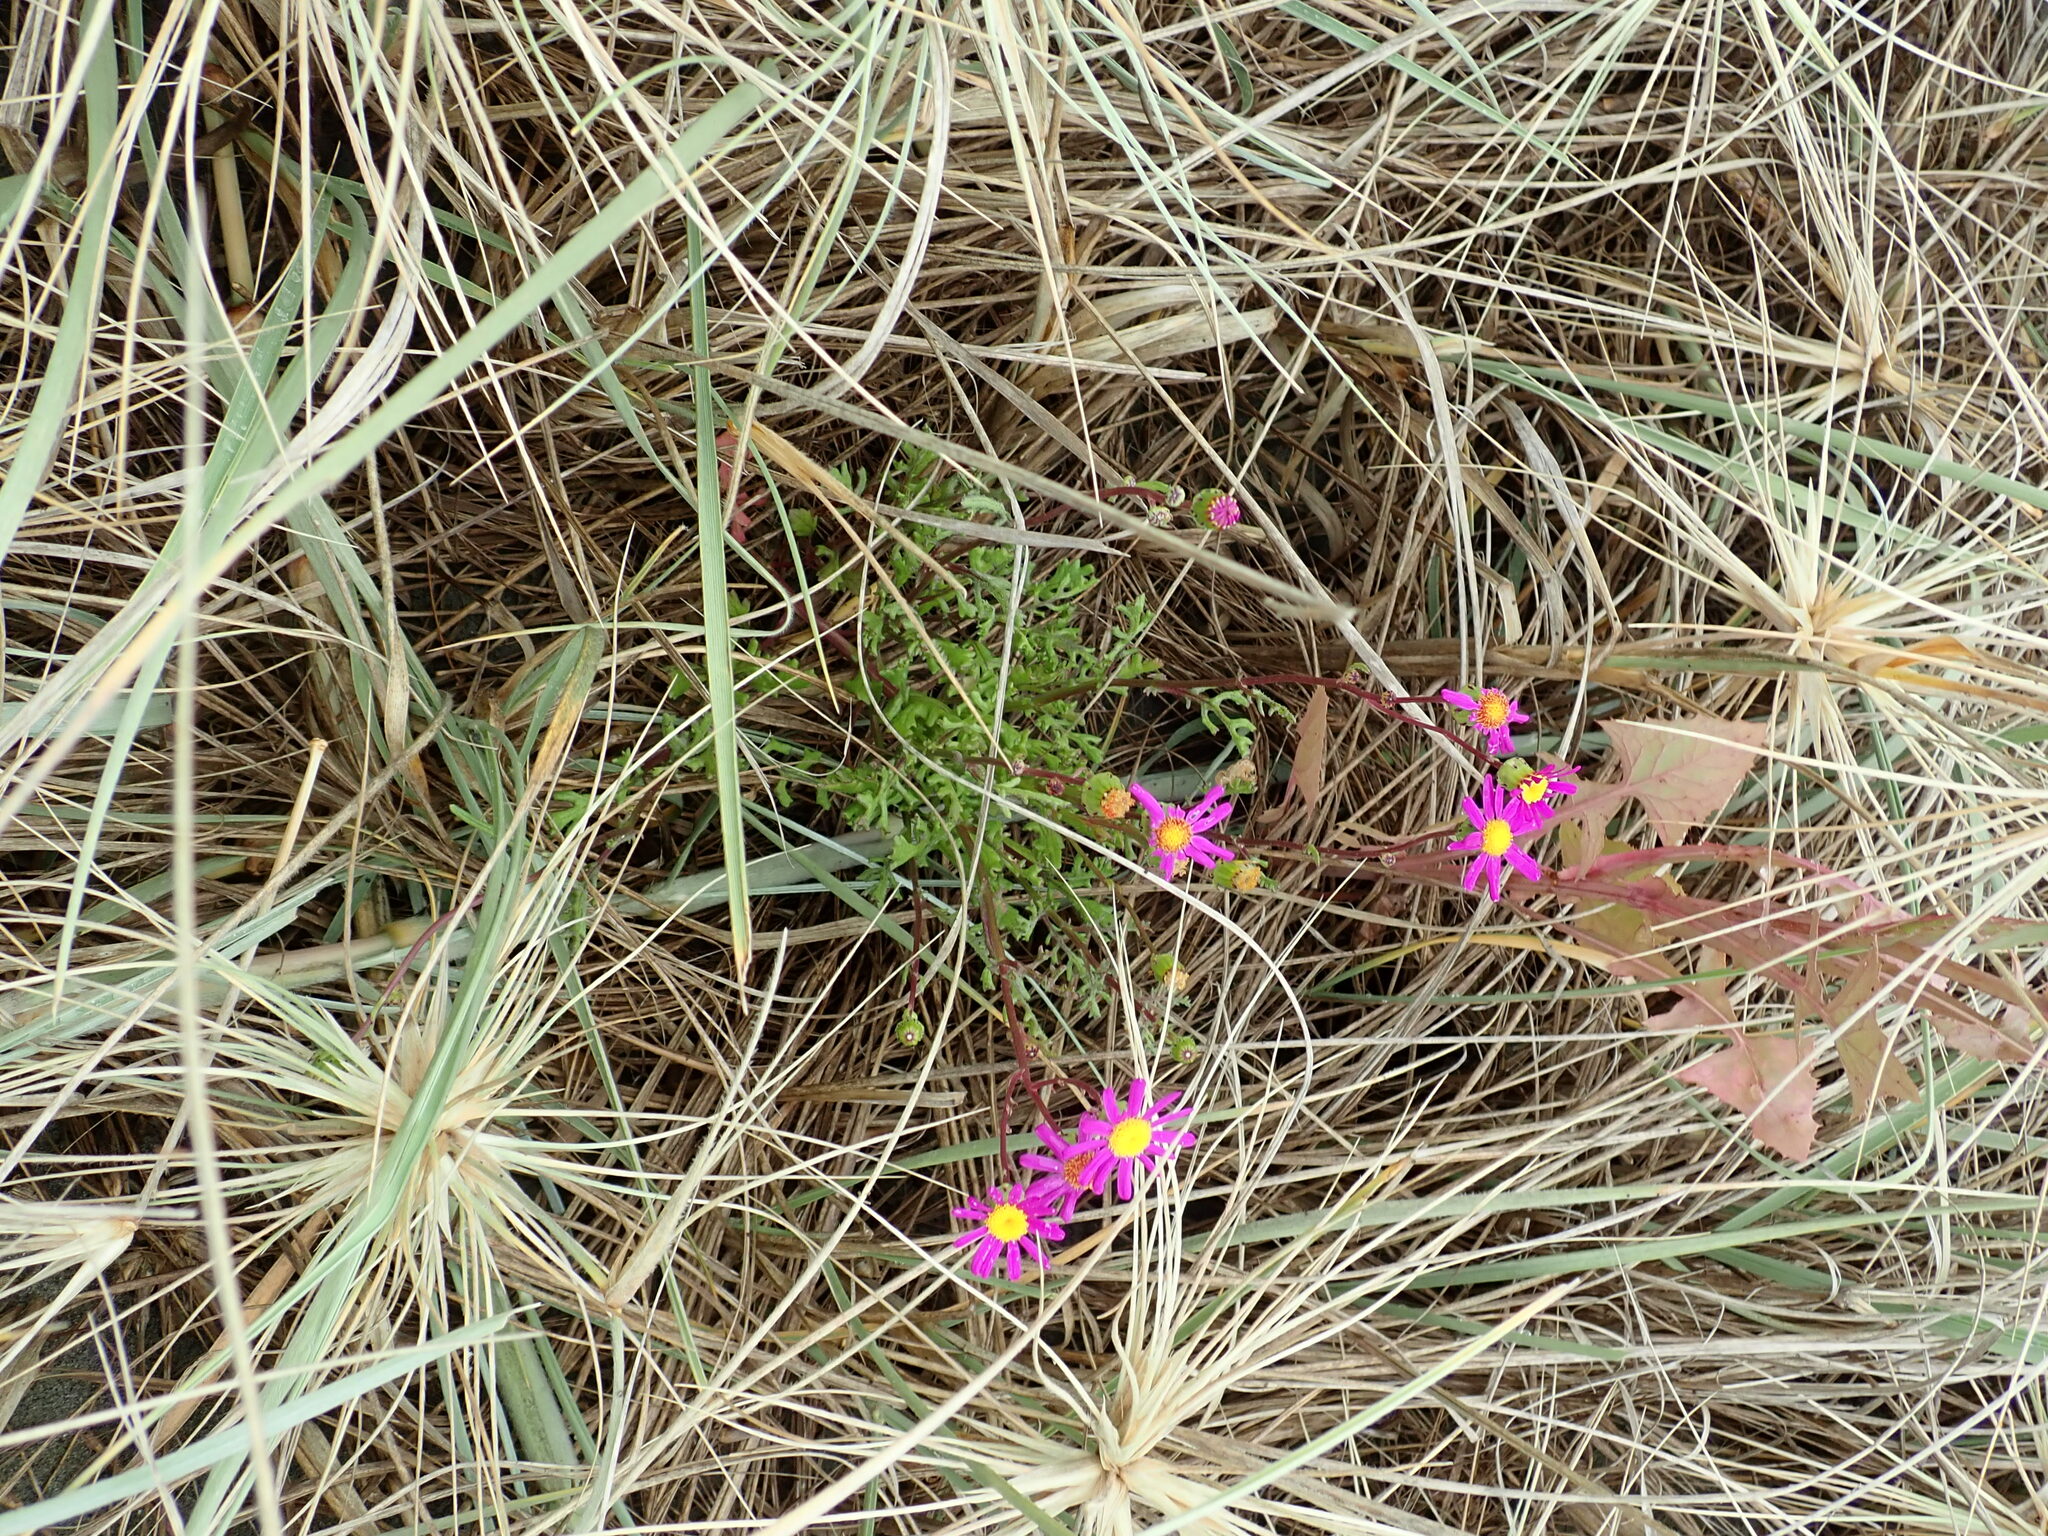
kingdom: Plantae
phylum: Tracheophyta
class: Magnoliopsida
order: Asterales
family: Asteraceae
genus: Senecio
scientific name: Senecio elegans
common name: Purple groundsel
